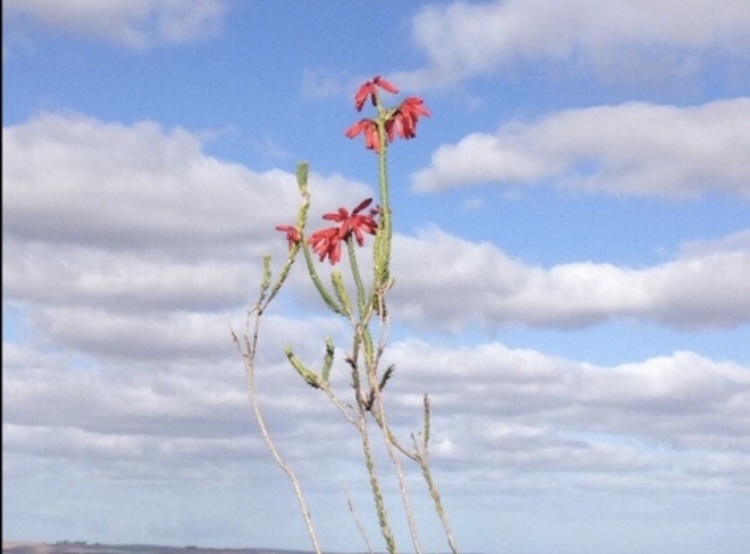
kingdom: Plantae
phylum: Tracheophyta
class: Magnoliopsida
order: Ericales
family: Ericaceae
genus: Erica
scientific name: Erica cerinthoides
